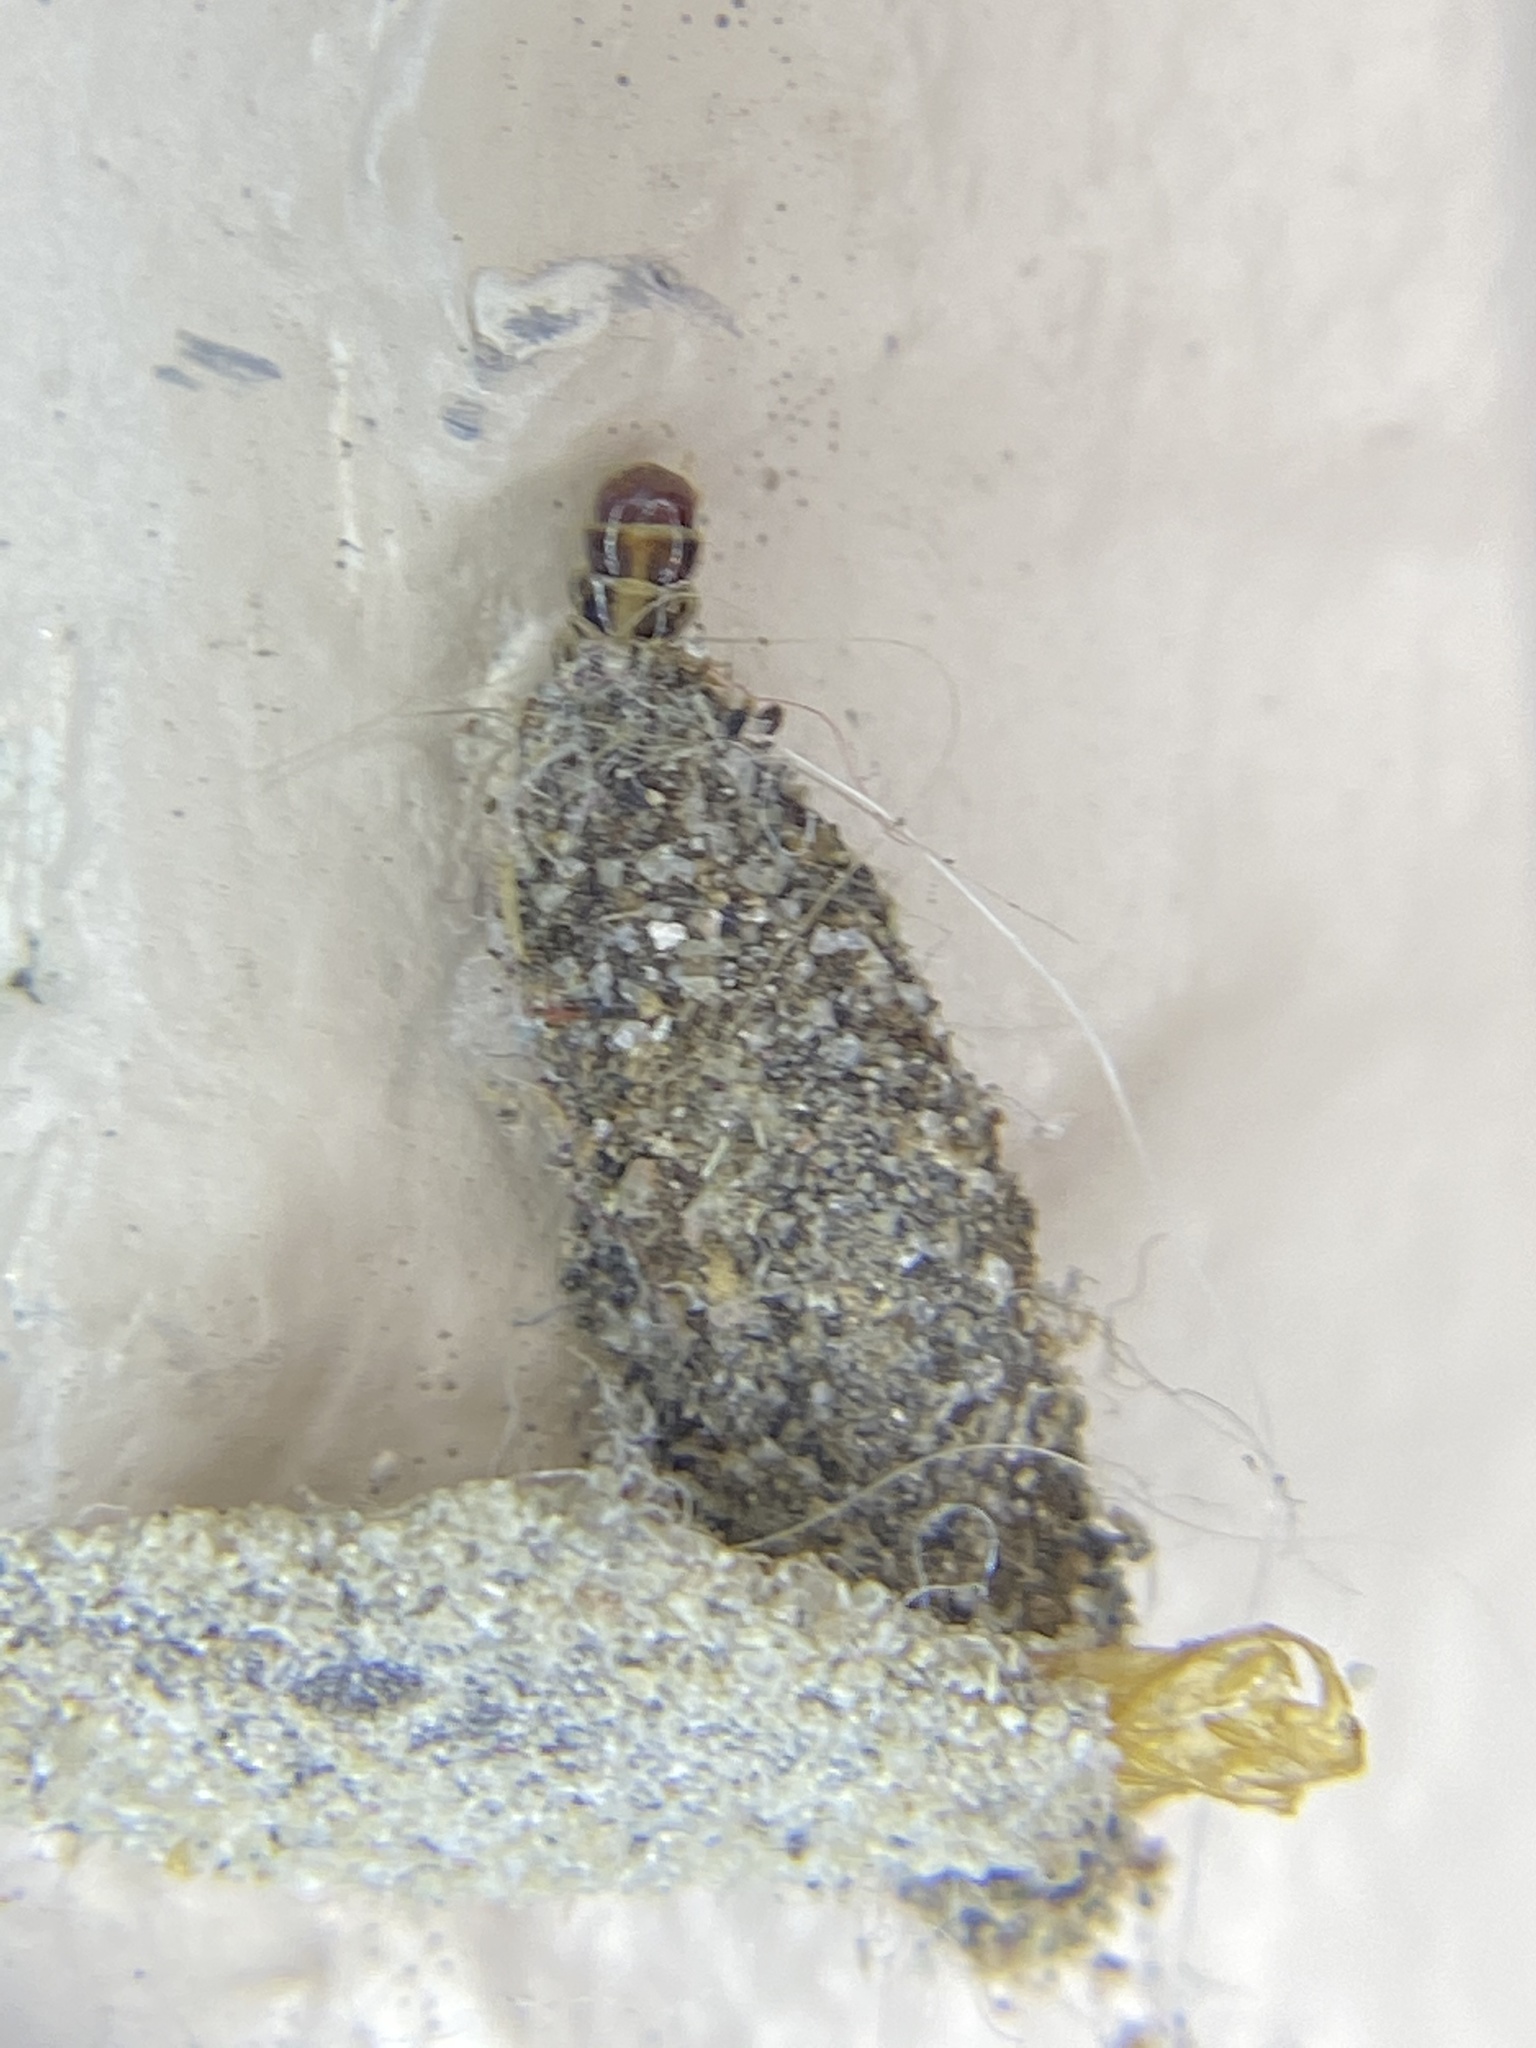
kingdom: Animalia
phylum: Arthropoda
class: Insecta
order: Lepidoptera
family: Tineidae
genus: Phereoeca
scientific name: Phereoeca uterella
